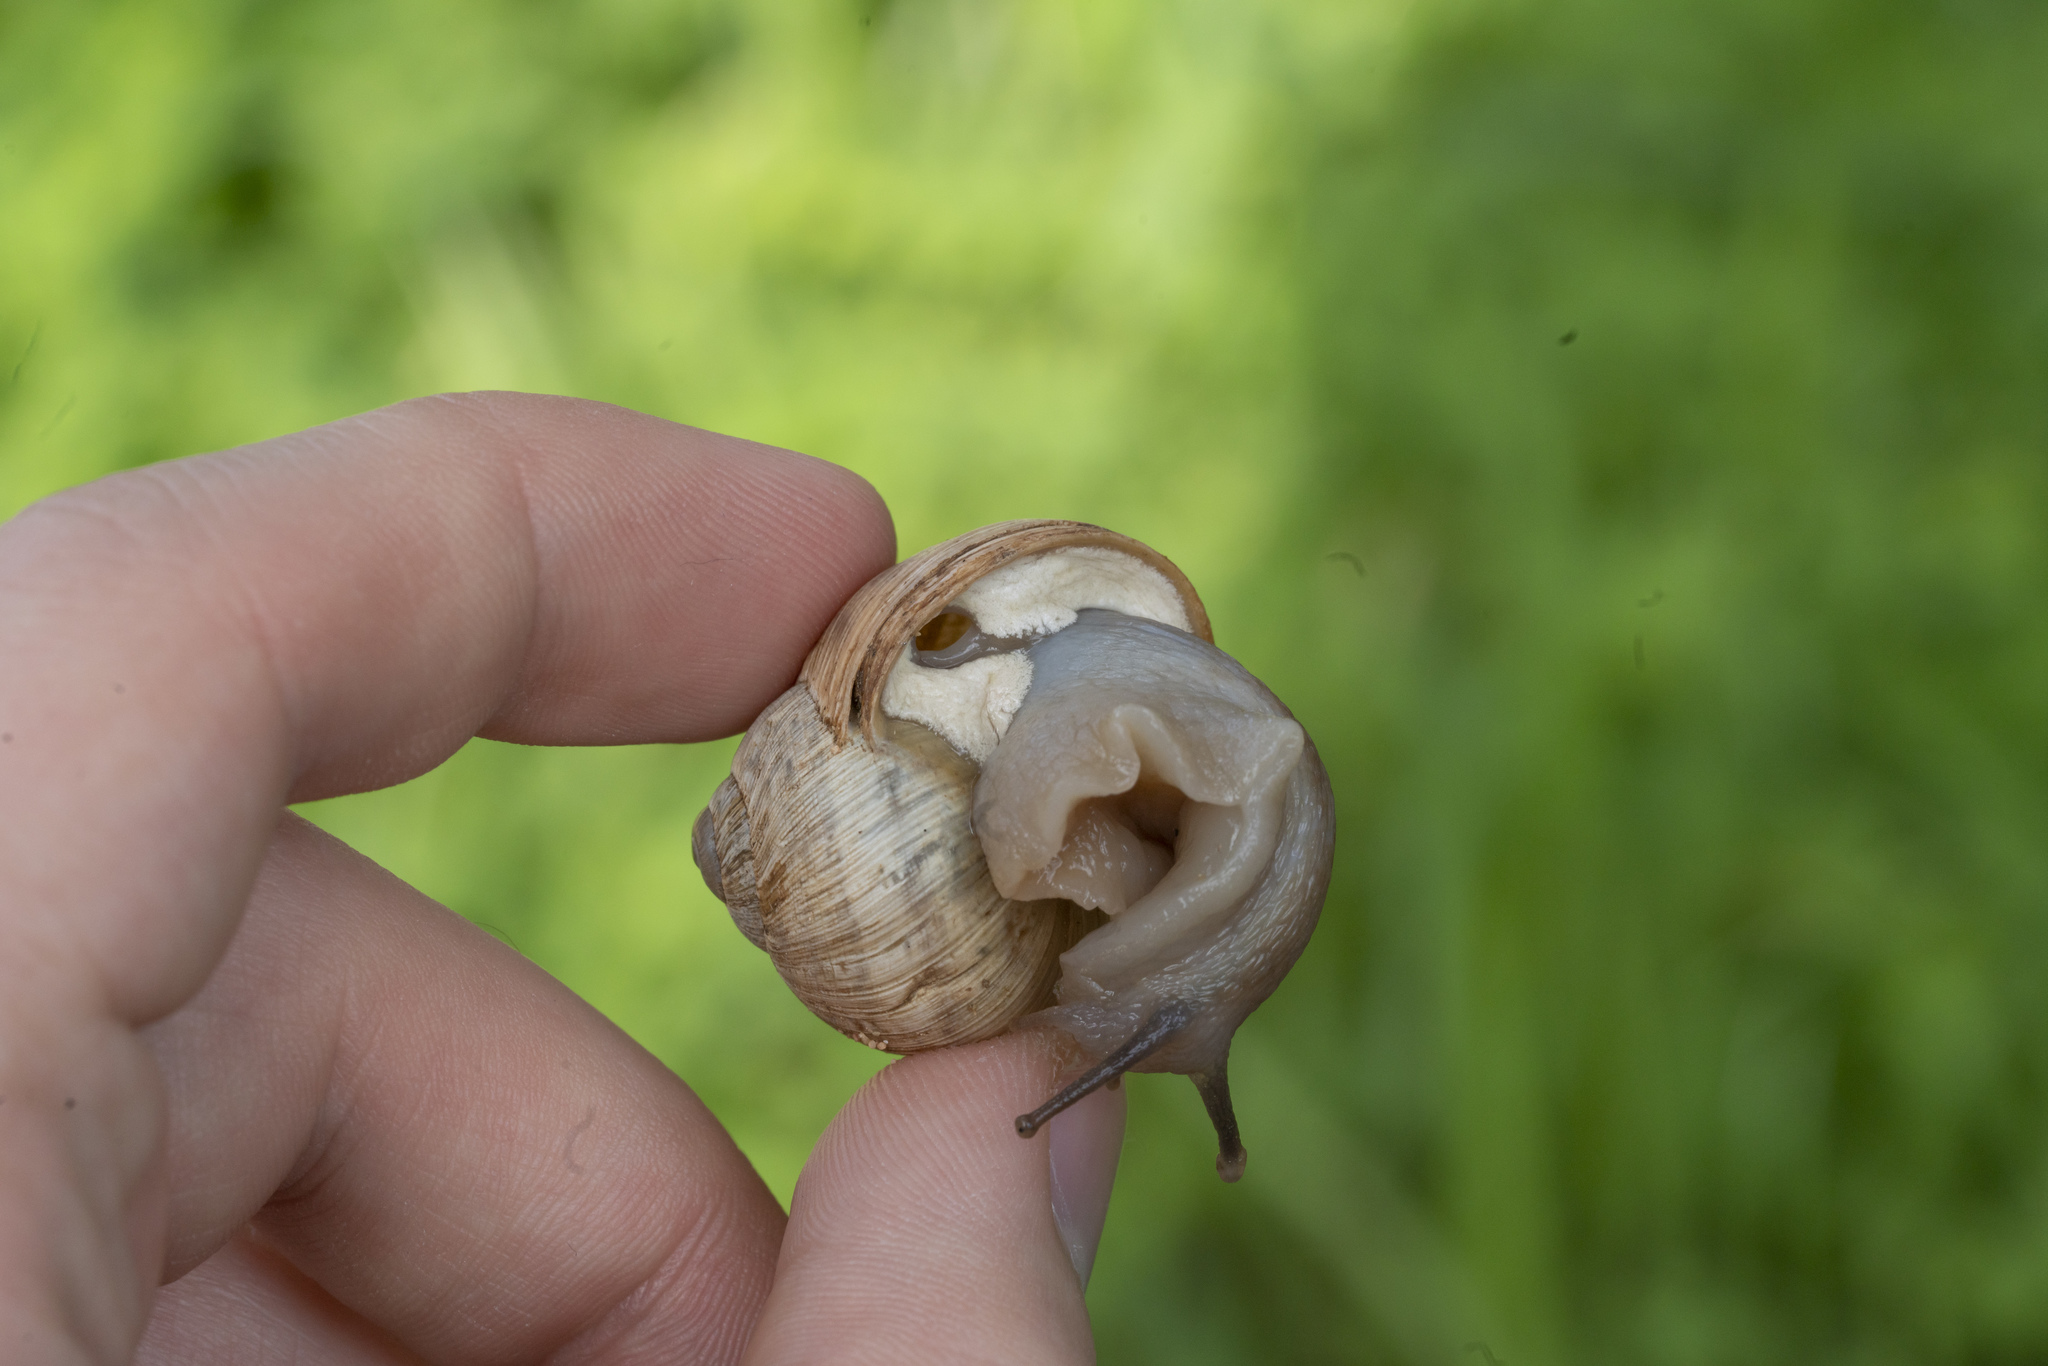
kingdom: Animalia
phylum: Mollusca
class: Gastropoda
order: Stylommatophora
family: Helicidae
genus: Helix
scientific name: Helix nucula
